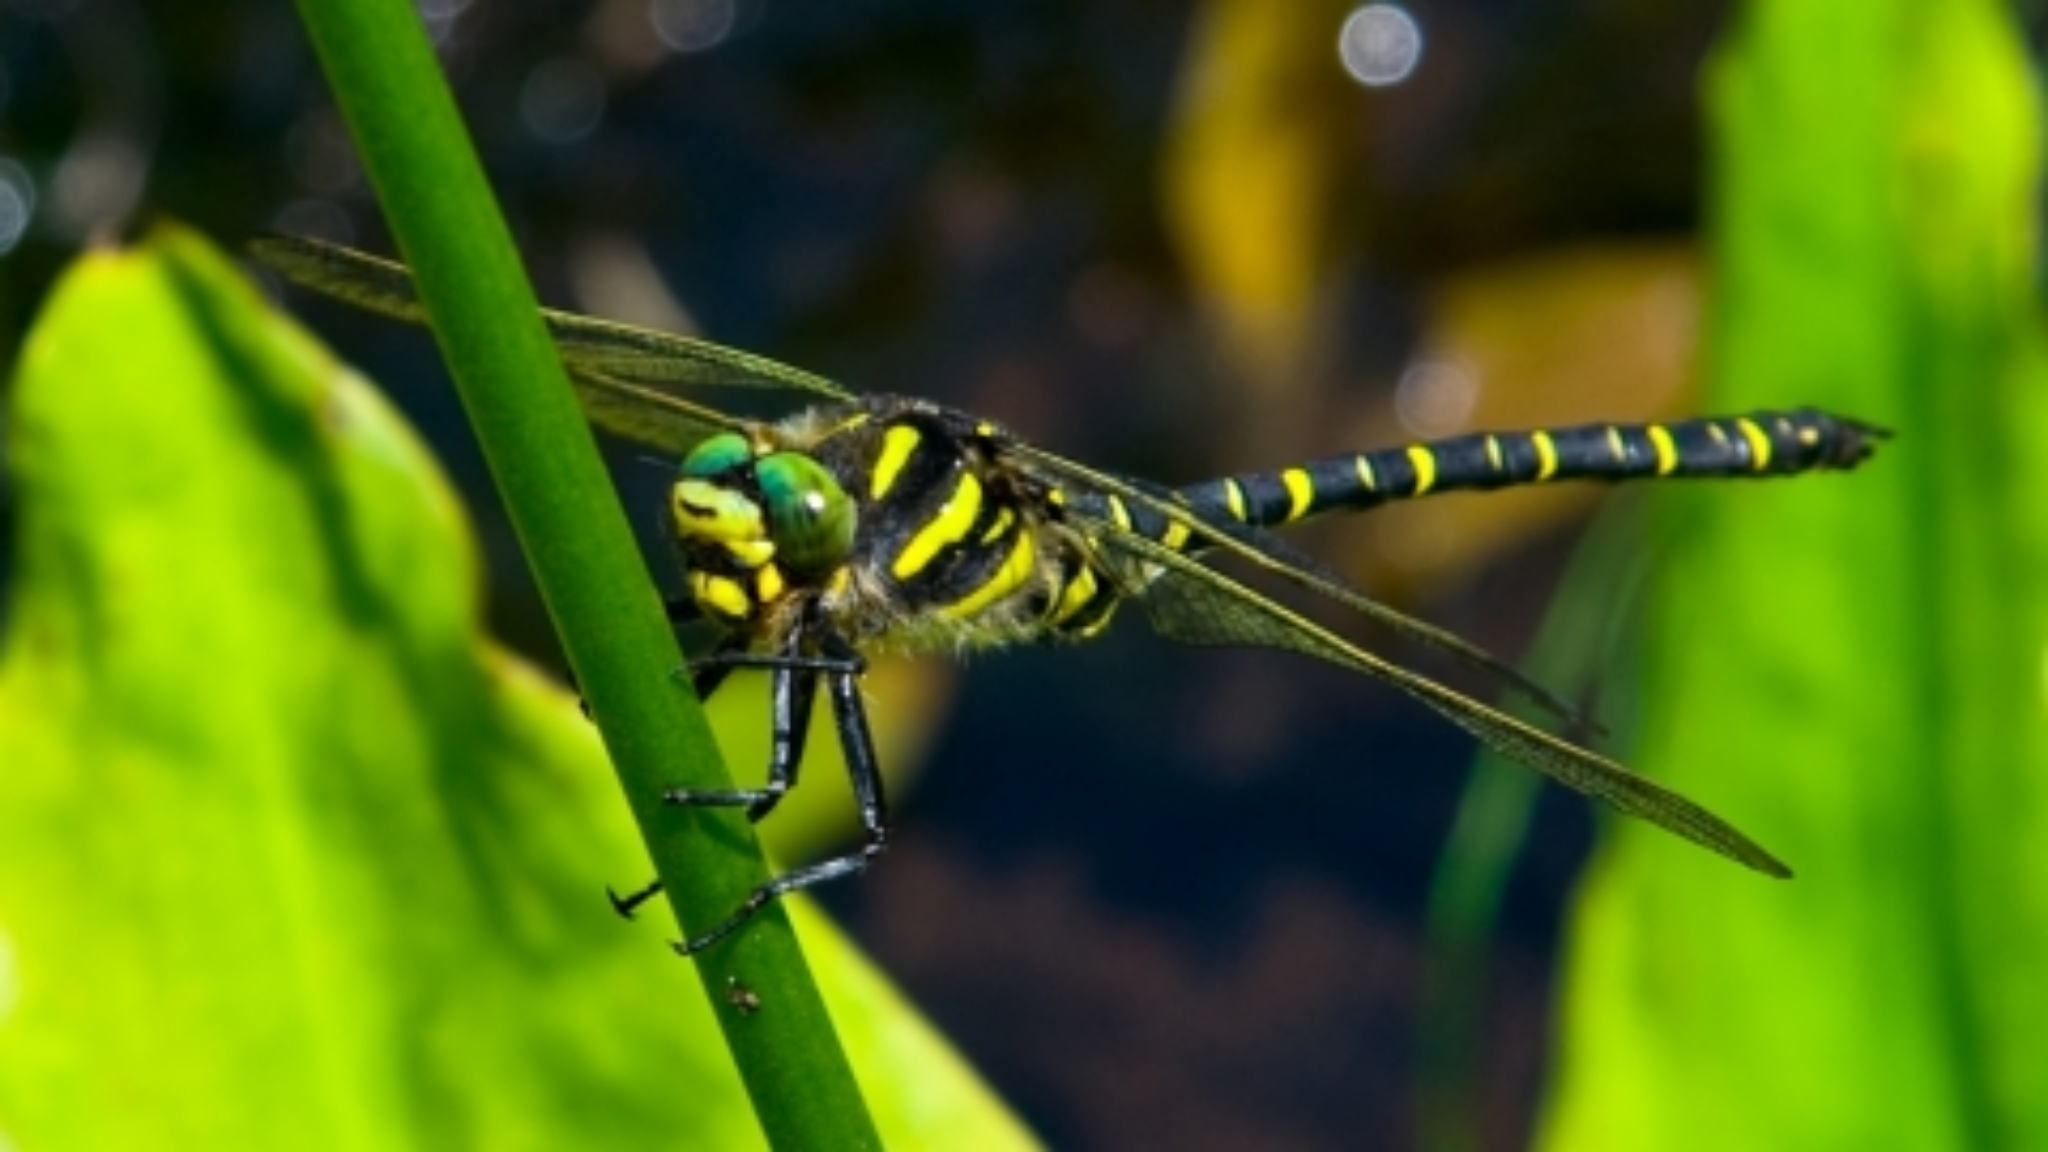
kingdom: Animalia
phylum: Arthropoda
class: Insecta
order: Odonata
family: Cordulegastridae
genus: Cordulegaster
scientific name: Cordulegaster boltonii
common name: Golden-ringed dragonfly
